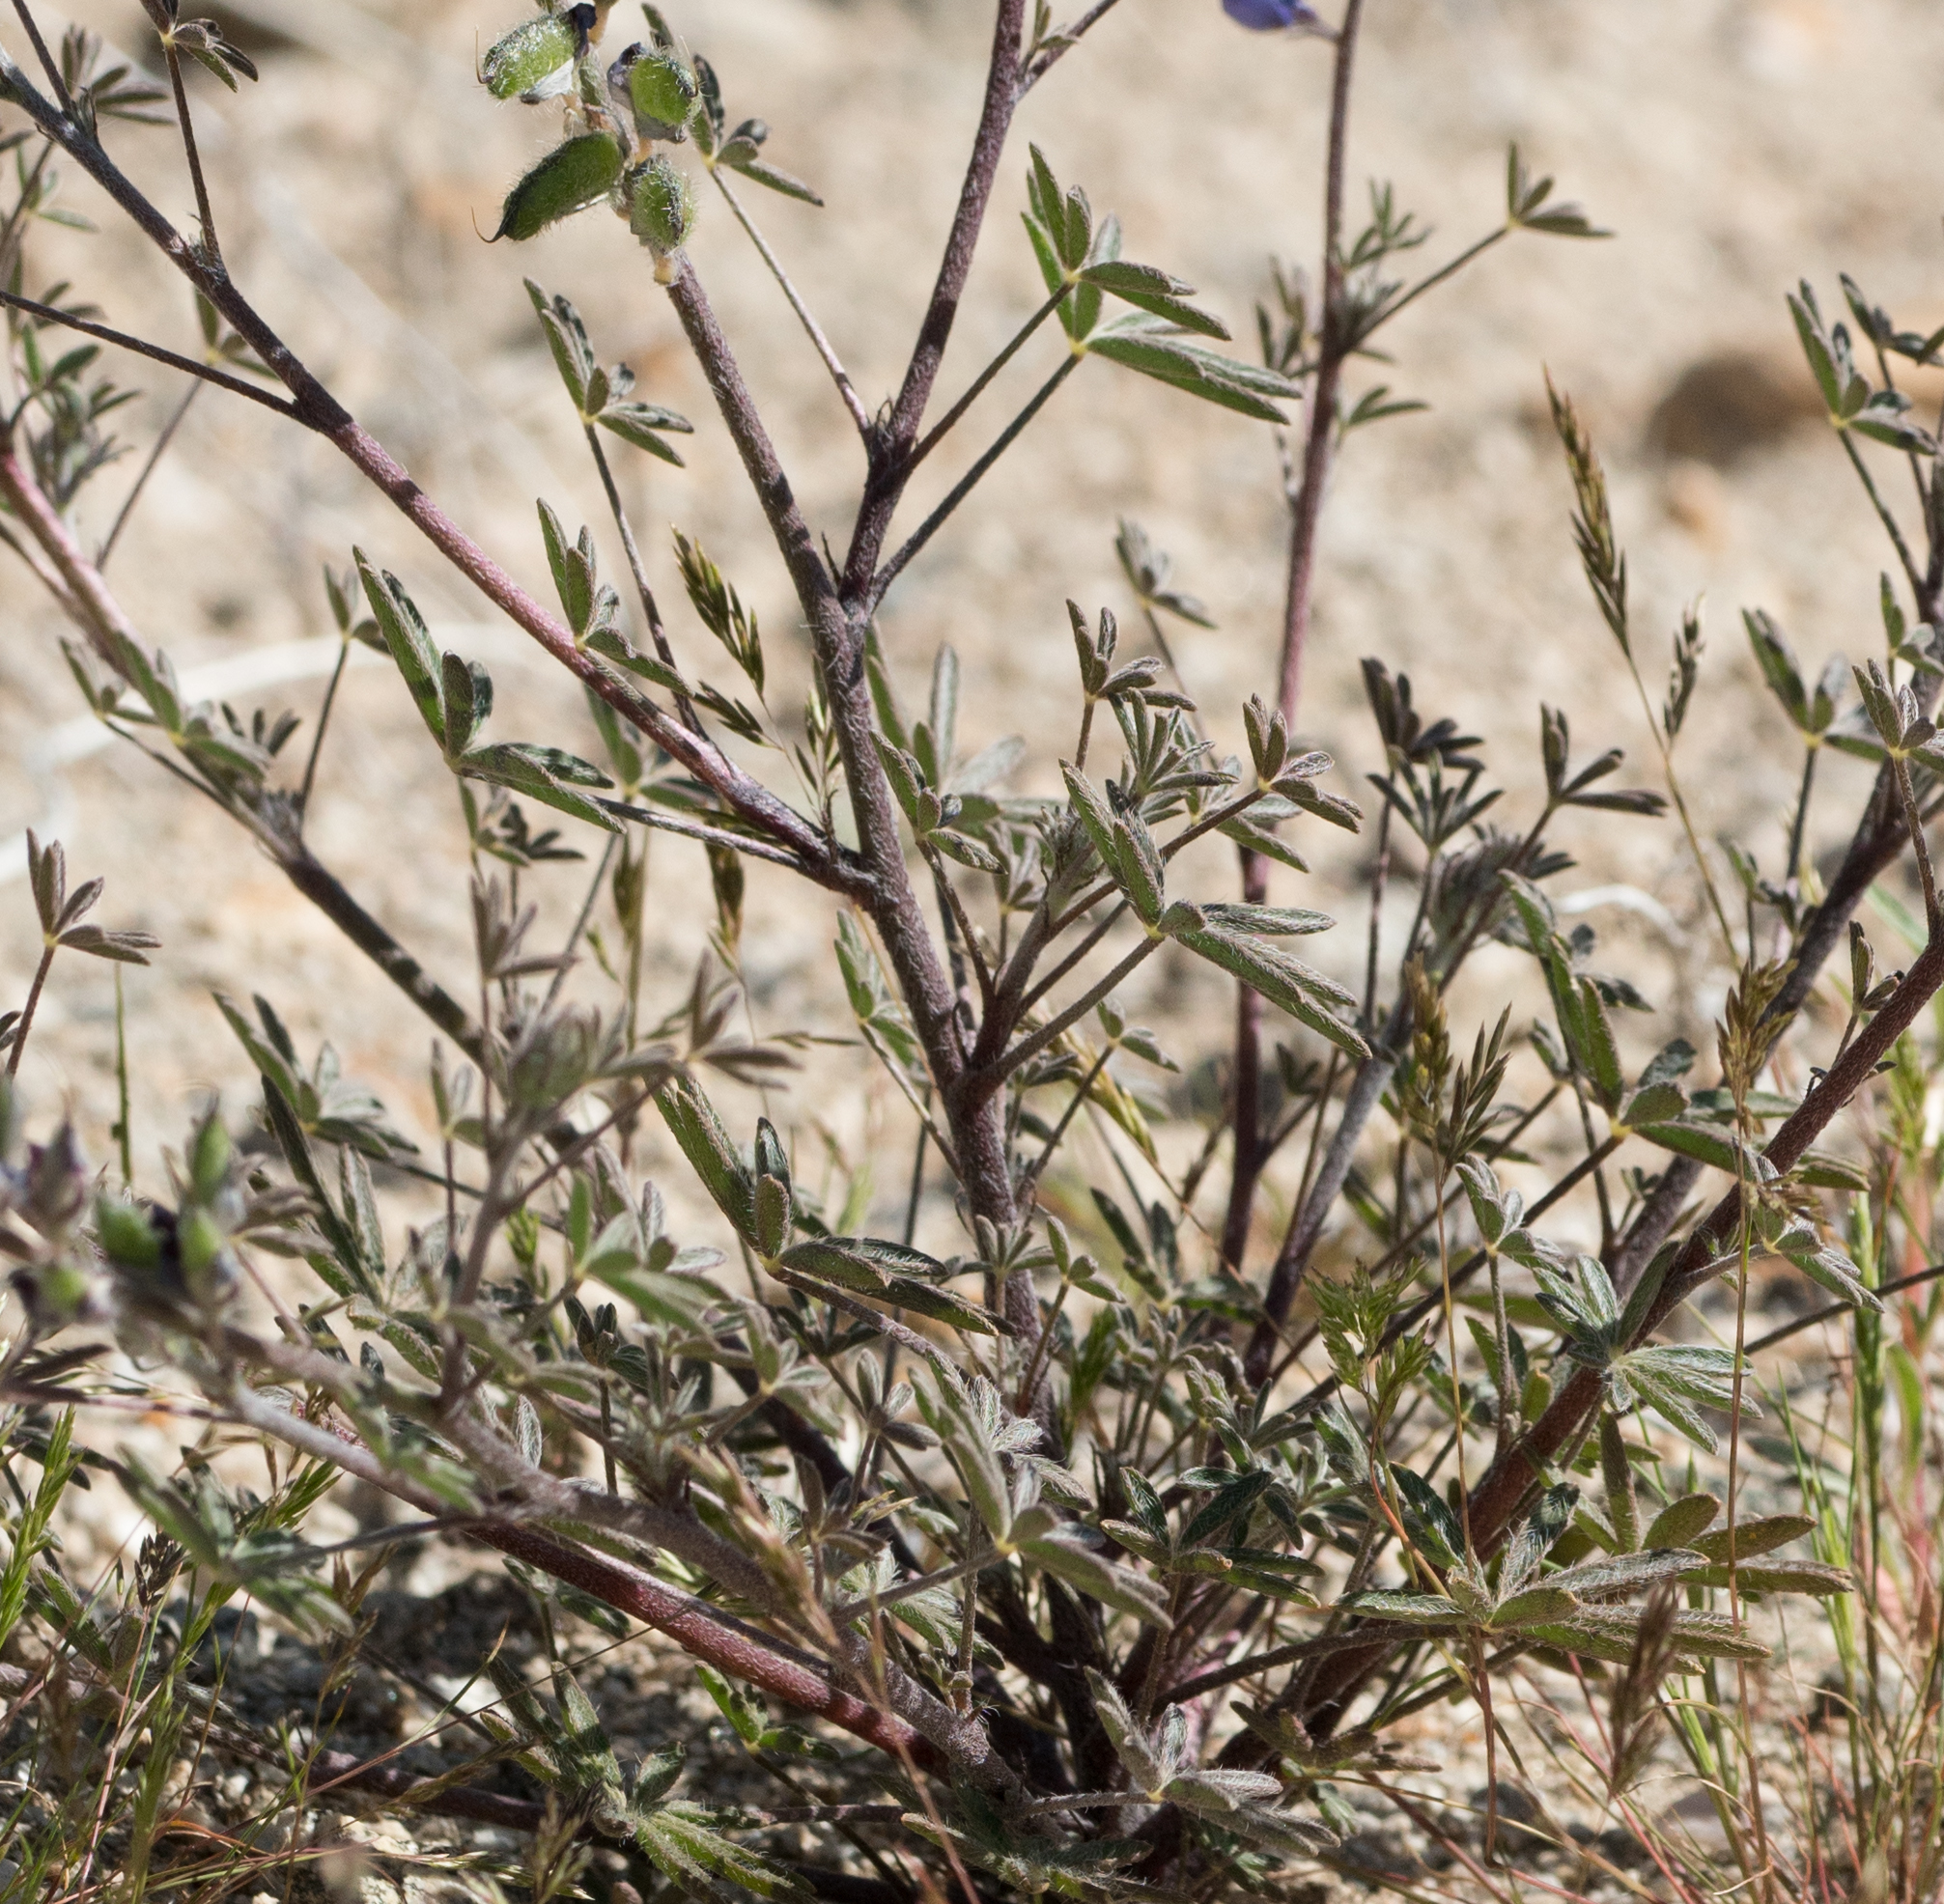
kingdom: Plantae
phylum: Tracheophyta
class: Magnoliopsida
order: Fabales
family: Fabaceae
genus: Lupinus
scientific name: Lupinus sparsiflorus
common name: Coulter's lupine
